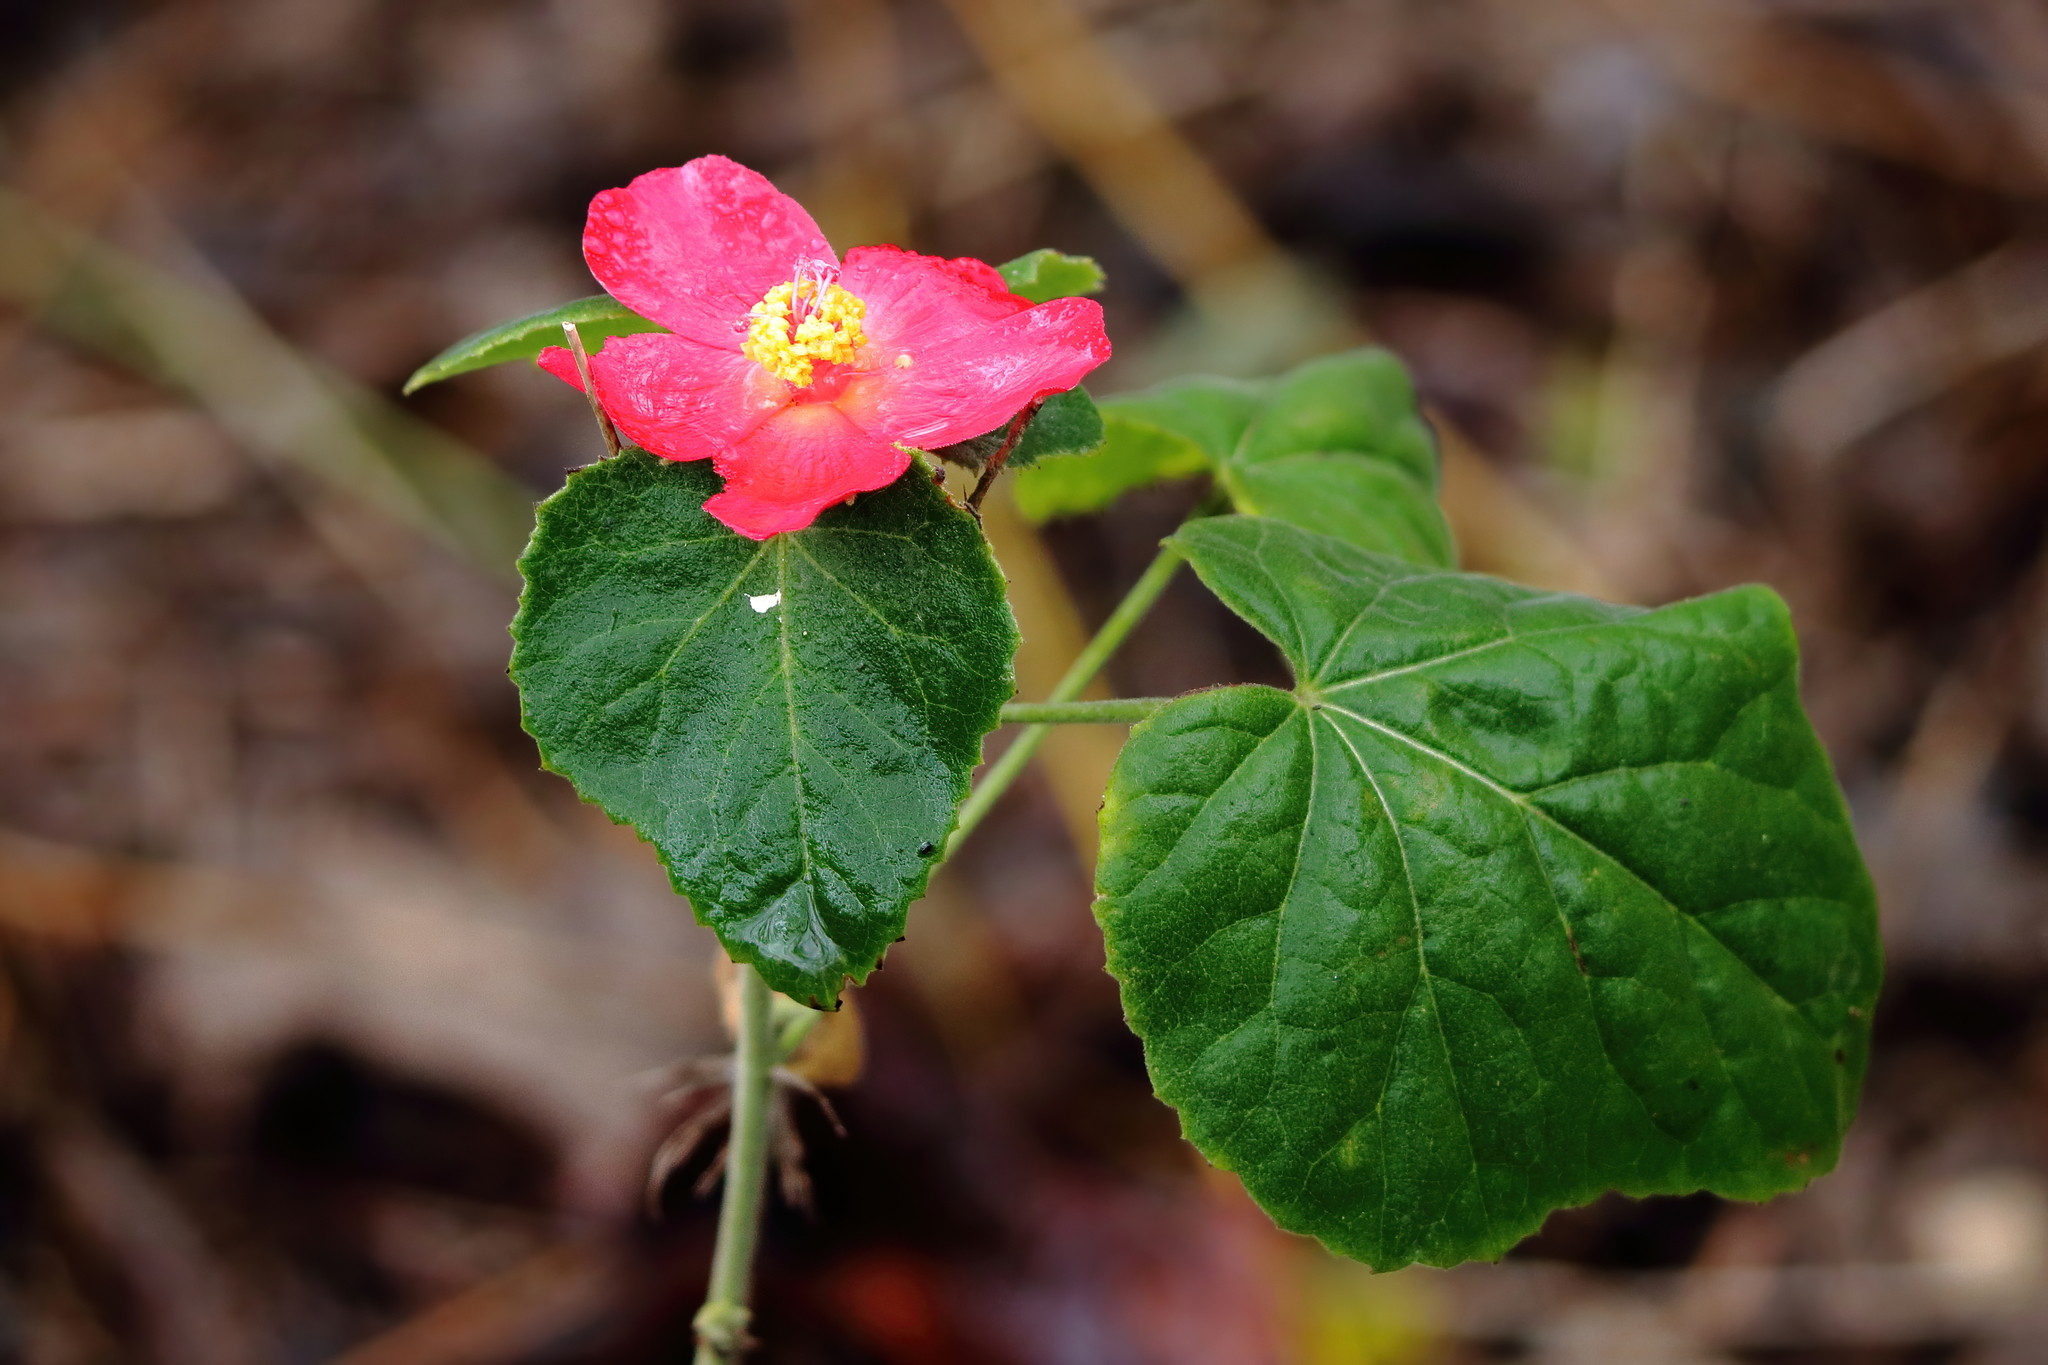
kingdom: Plantae
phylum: Tracheophyta
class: Magnoliopsida
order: Malvales
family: Malvaceae
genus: Hibiscus
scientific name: Hibiscus martianus
